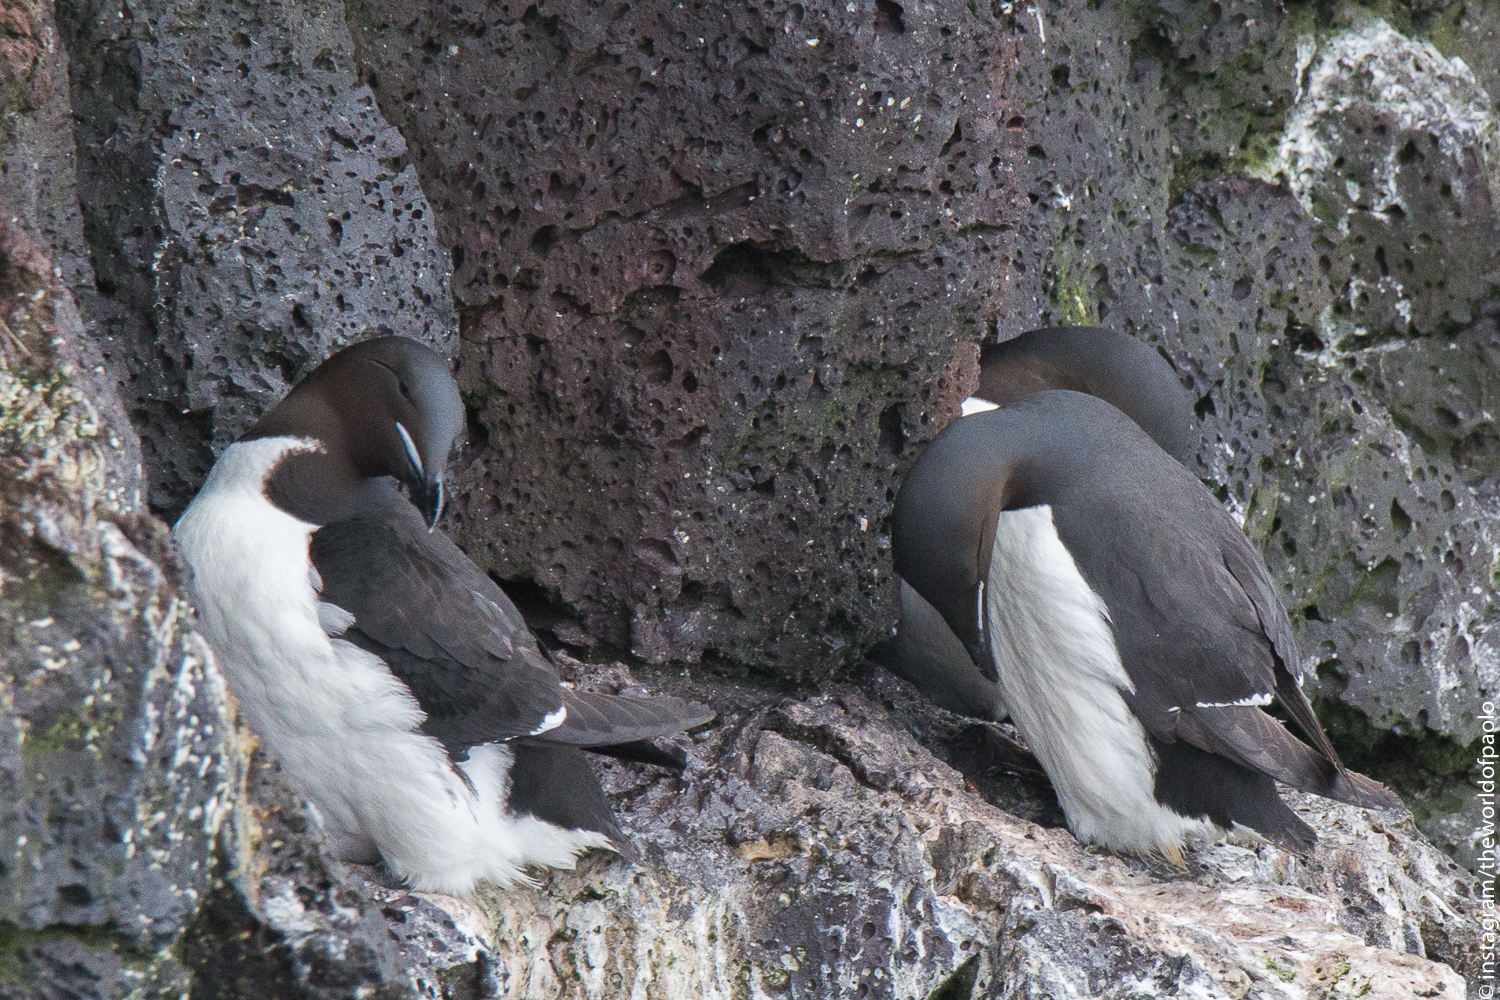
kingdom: Animalia
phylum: Chordata
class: Aves
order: Charadriiformes
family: Alcidae
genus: Uria
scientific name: Uria lomvia
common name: Thick-billed murre
